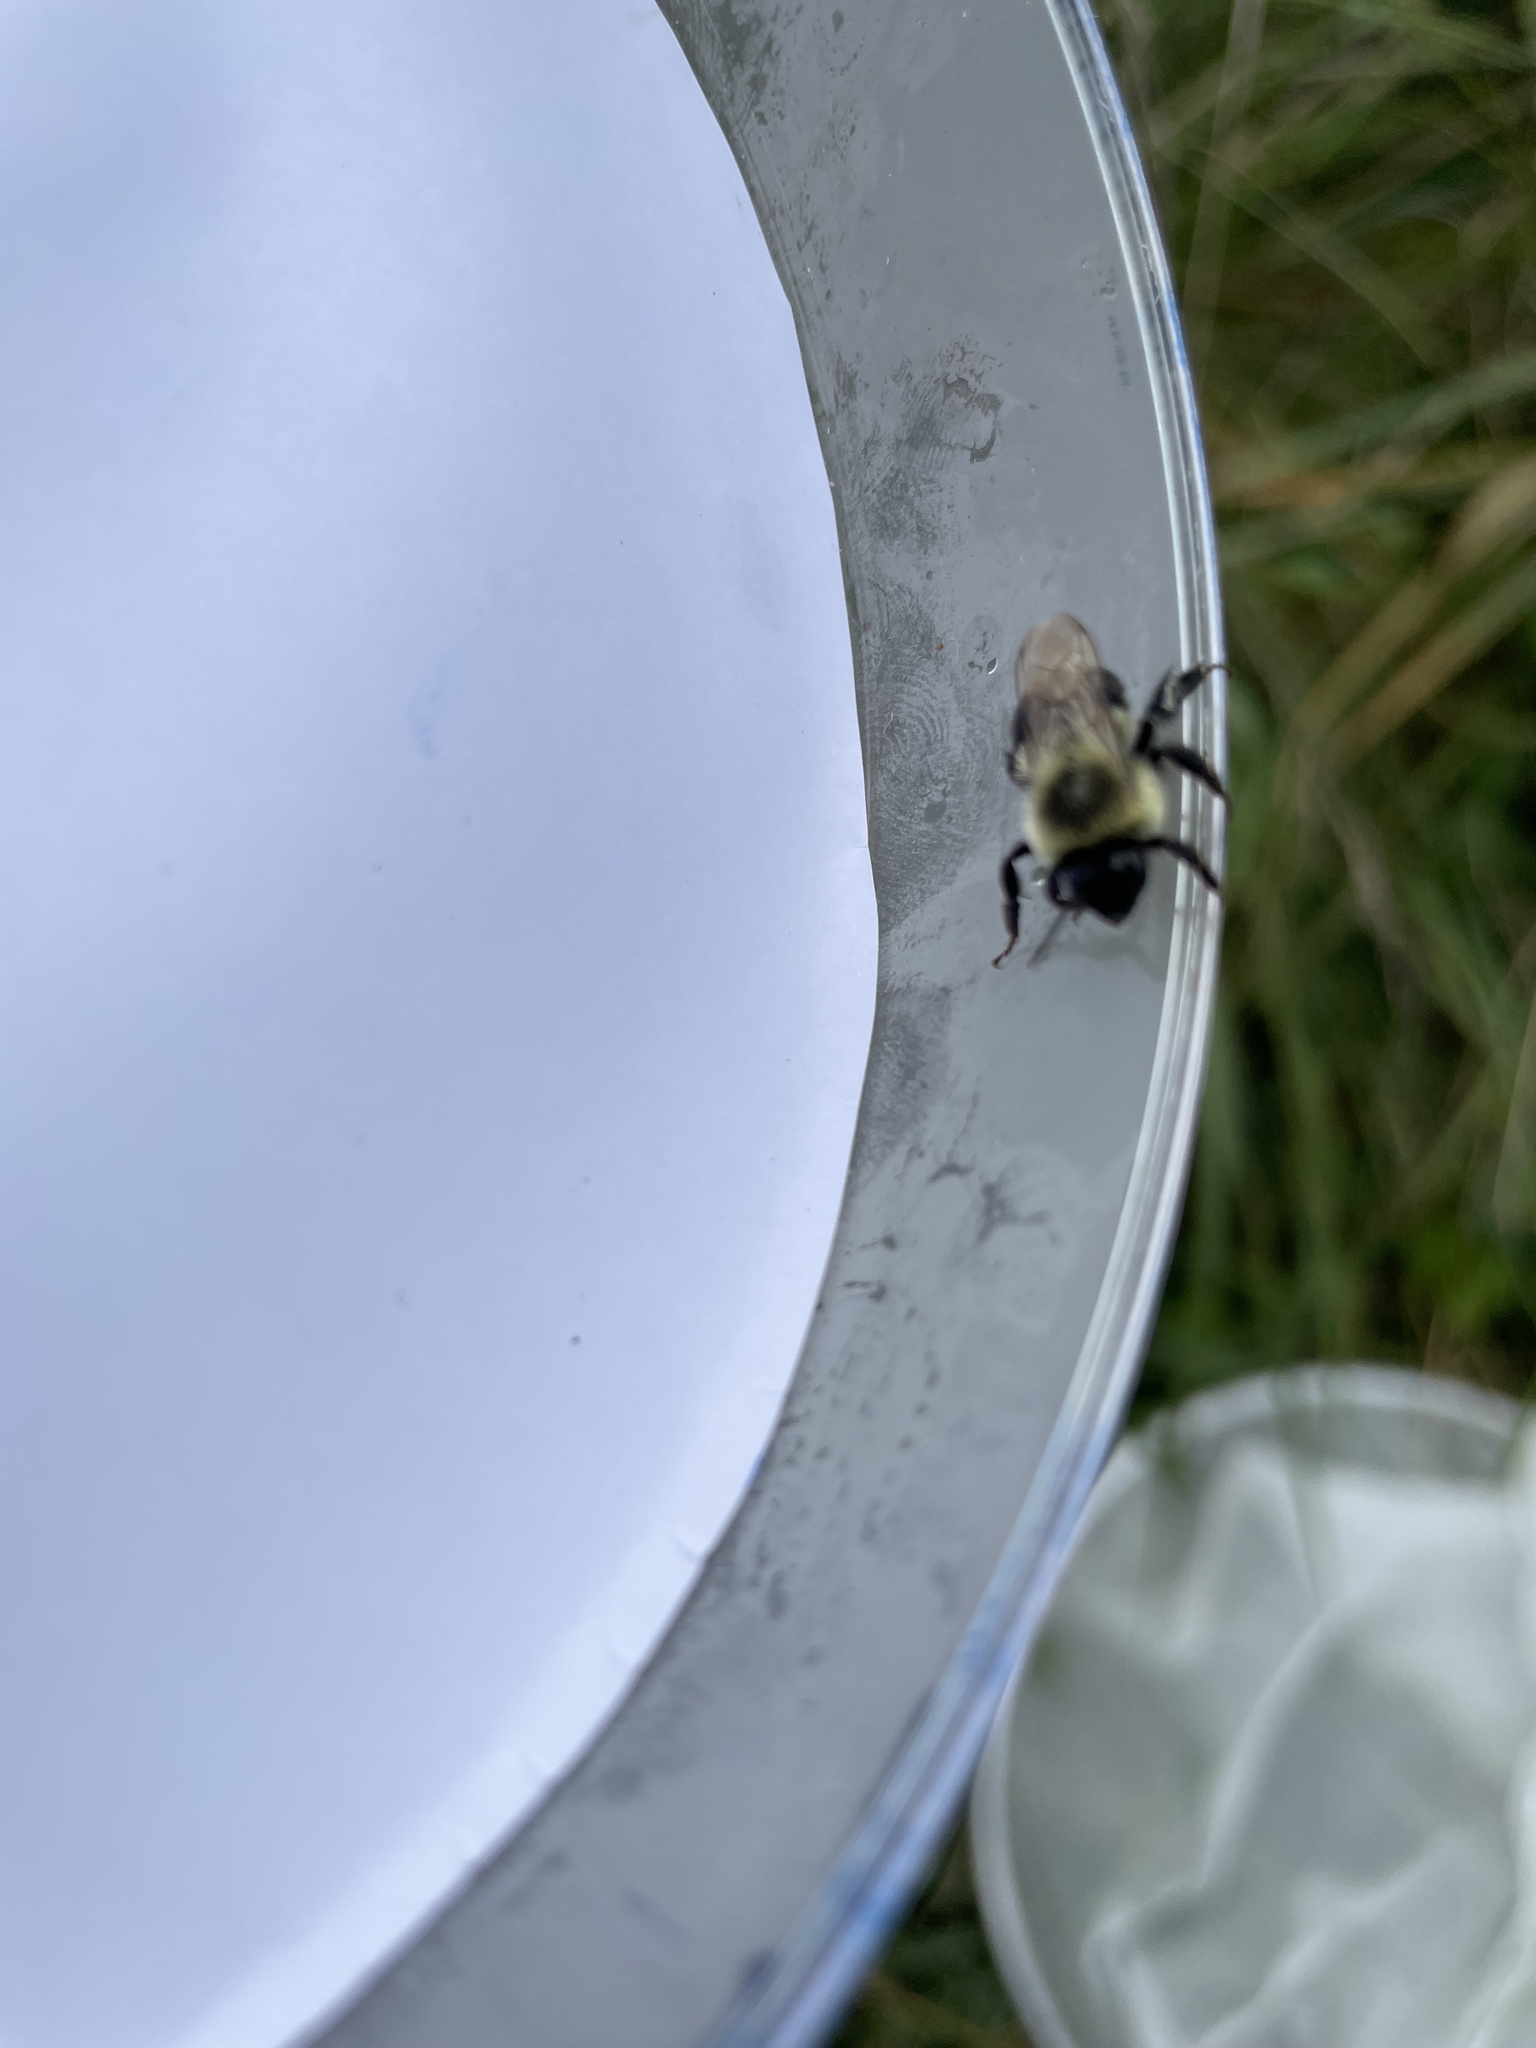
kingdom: Animalia
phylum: Arthropoda
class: Insecta
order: Hymenoptera
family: Apidae
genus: Bombus
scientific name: Bombus impatiens
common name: Common eastern bumble bee
